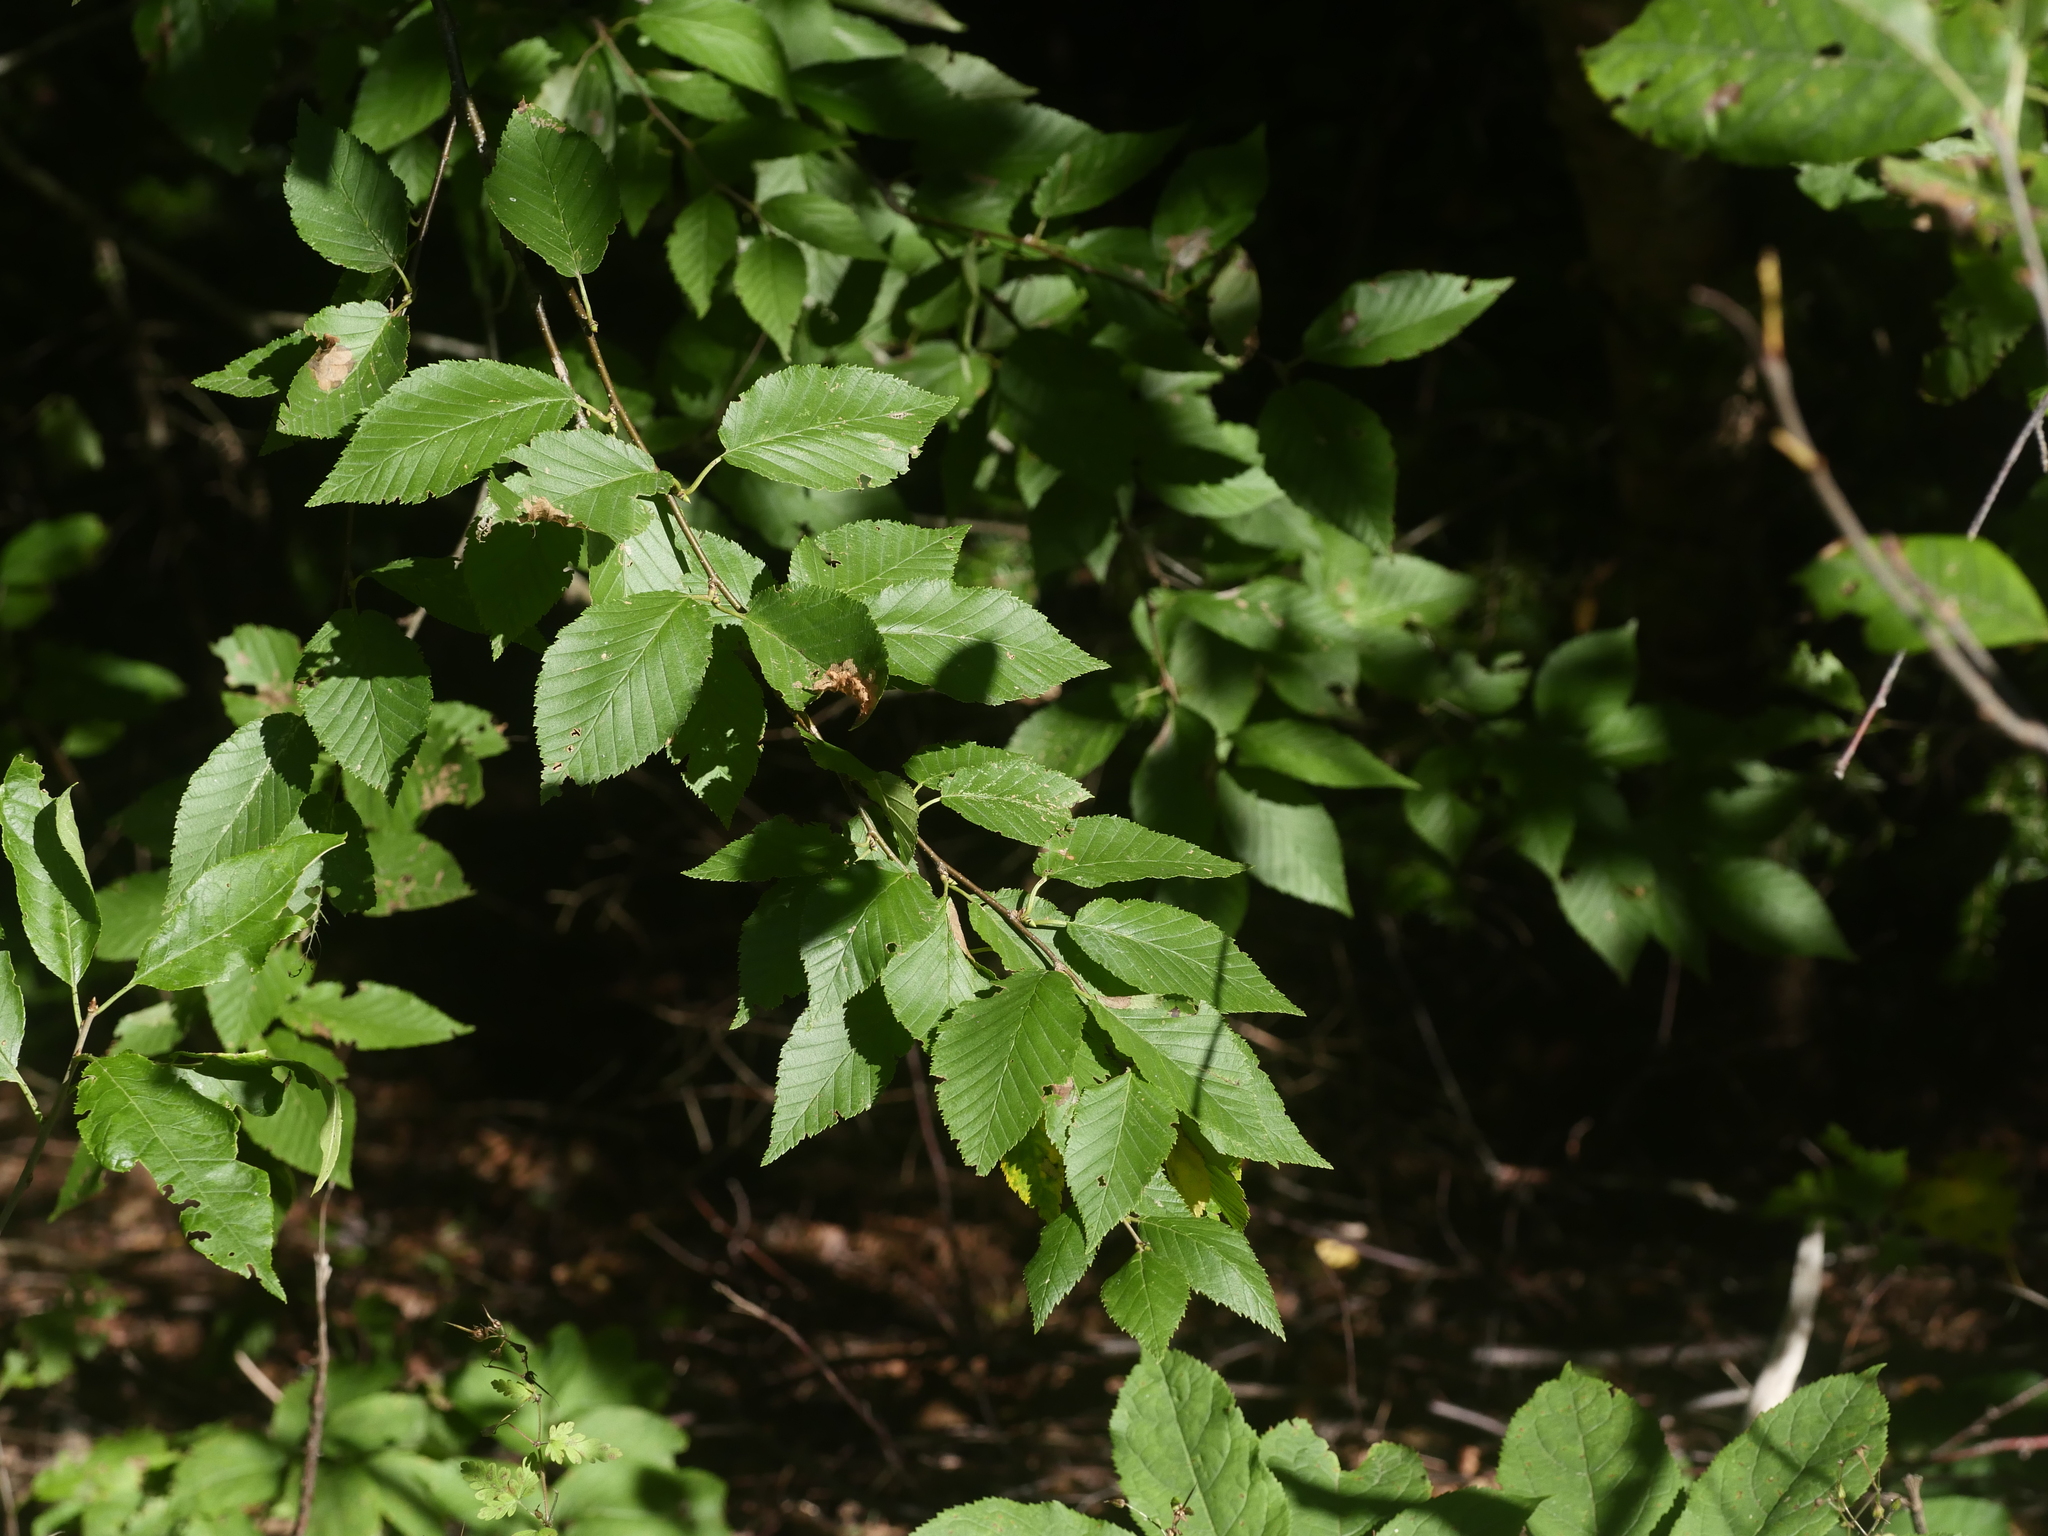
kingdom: Plantae
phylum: Tracheophyta
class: Magnoliopsida
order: Fagales
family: Betulaceae
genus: Betula
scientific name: Betula alleghaniensis
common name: Yellow birch
